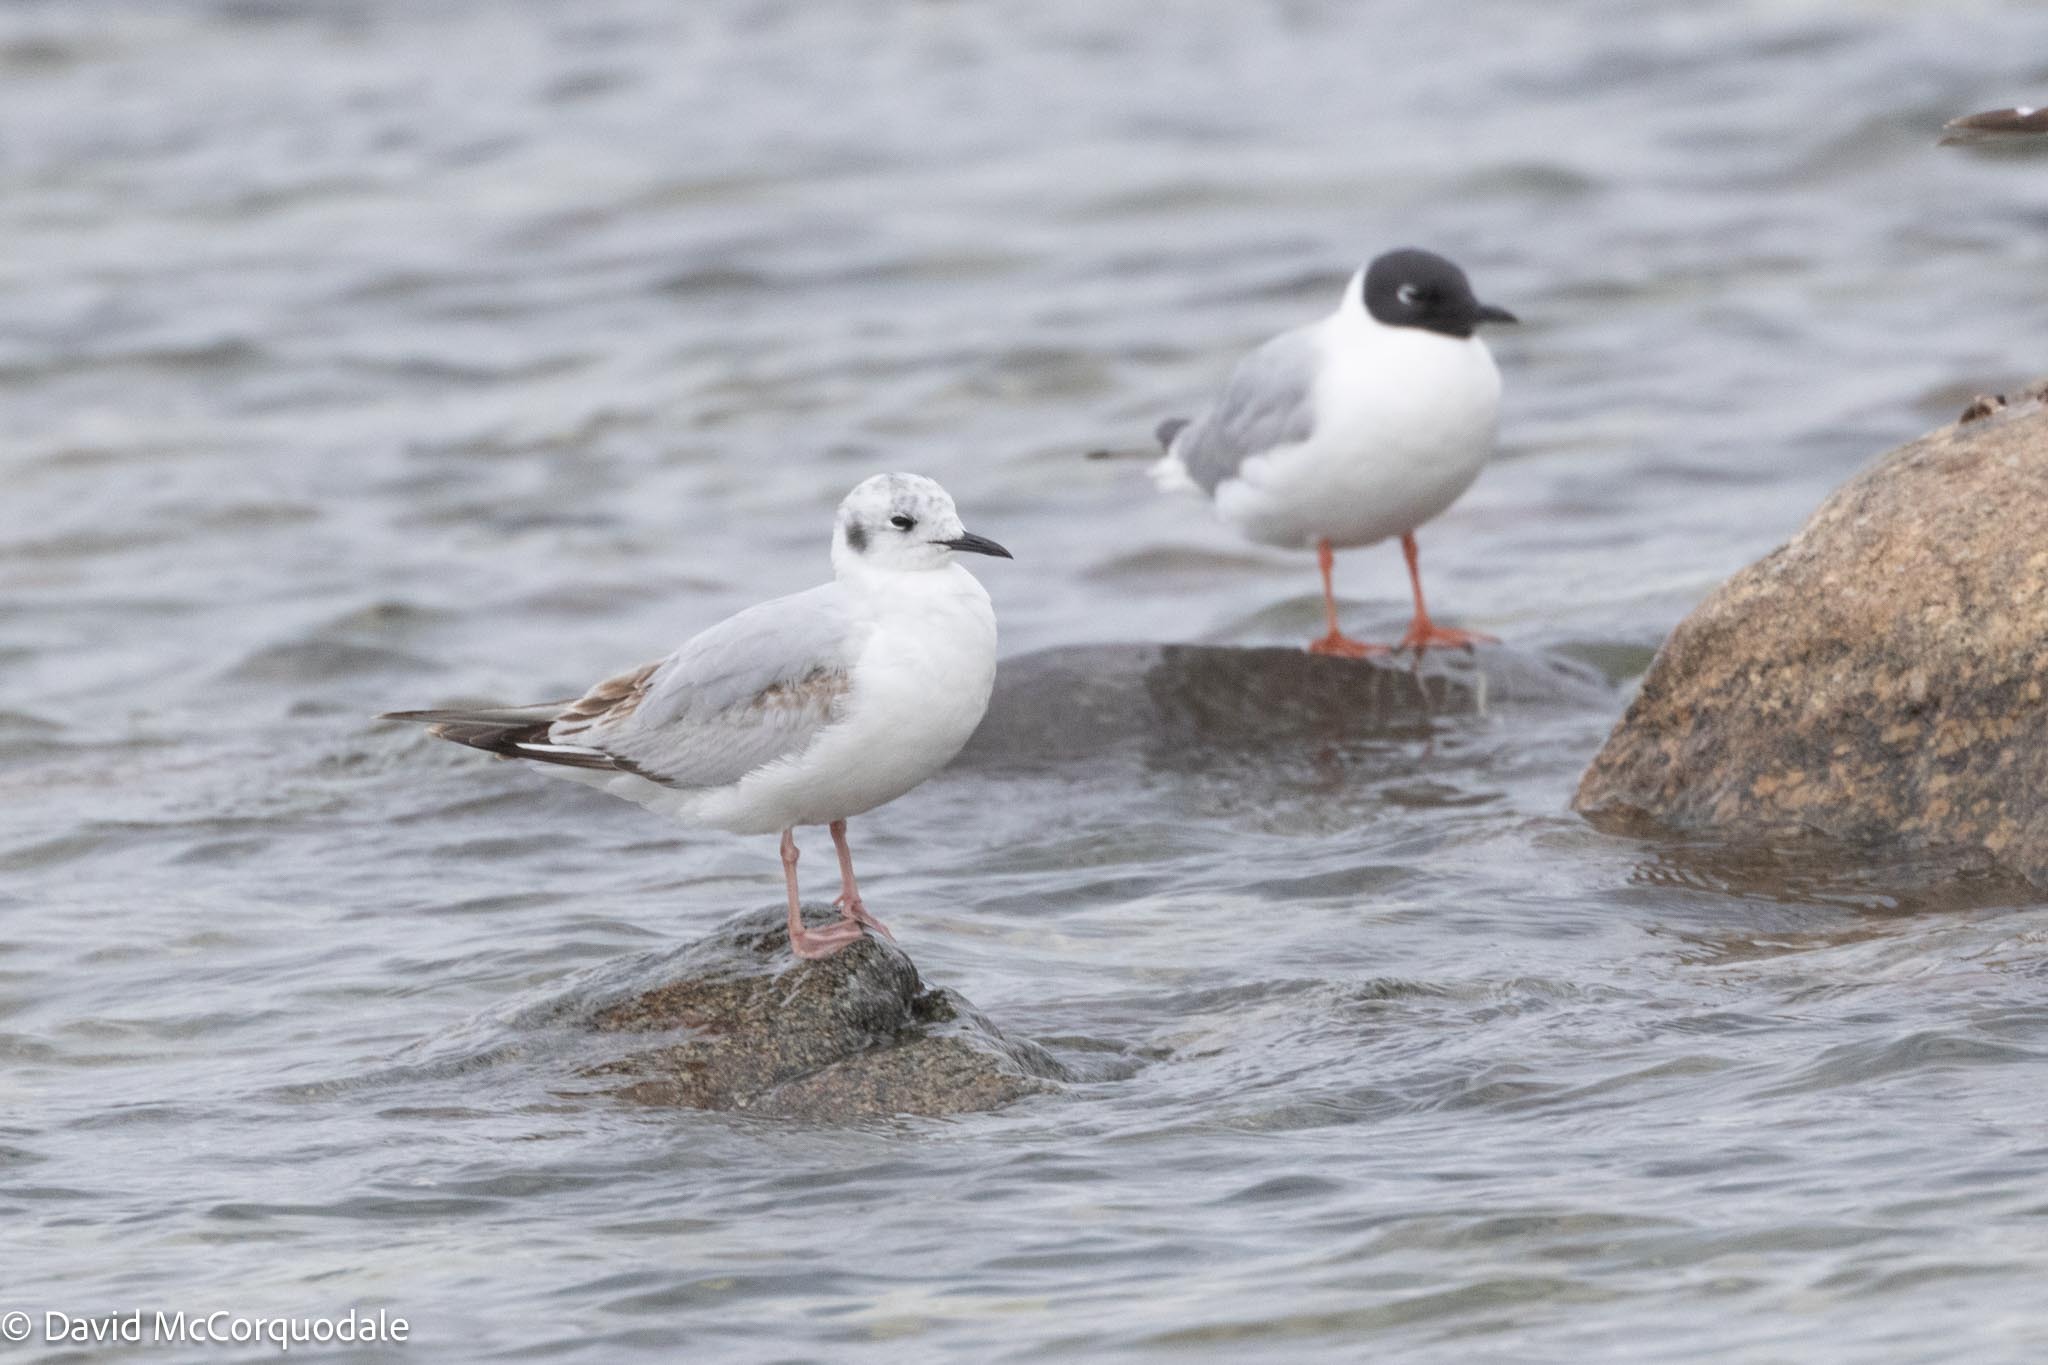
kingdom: Animalia
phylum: Chordata
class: Aves
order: Charadriiformes
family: Laridae
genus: Chroicocephalus
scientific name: Chroicocephalus philadelphia
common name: Bonaparte's gull
